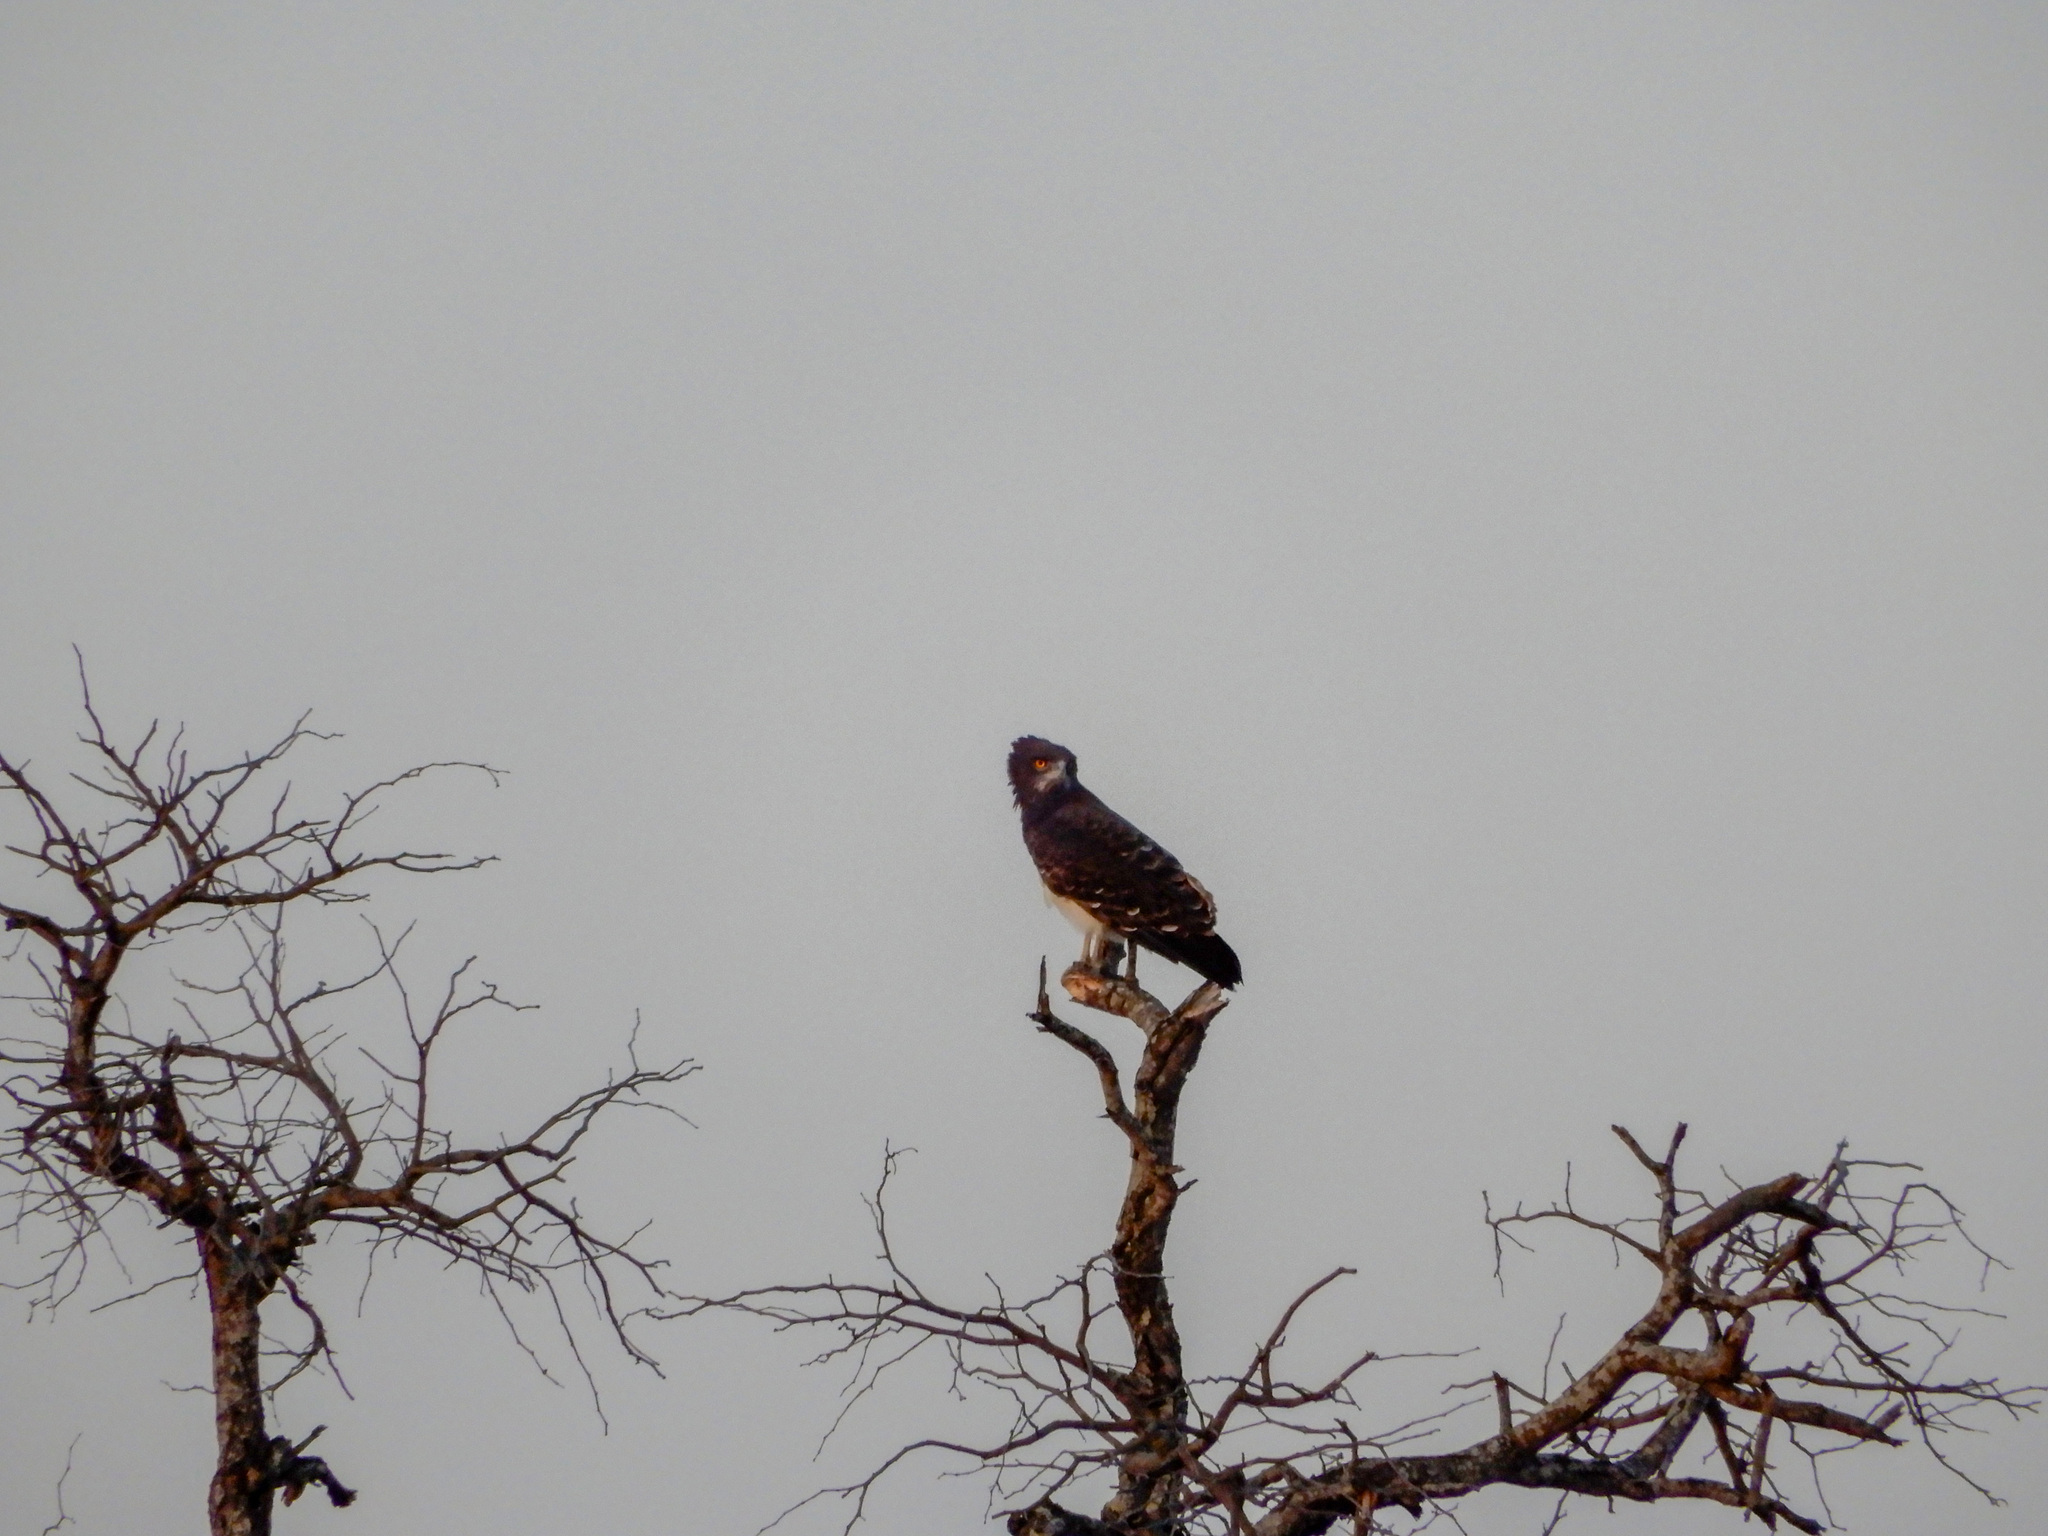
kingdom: Animalia
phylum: Chordata
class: Aves
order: Accipitriformes
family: Accipitridae
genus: Circaetus
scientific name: Circaetus pectoralis
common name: Black-chested snake eagle
